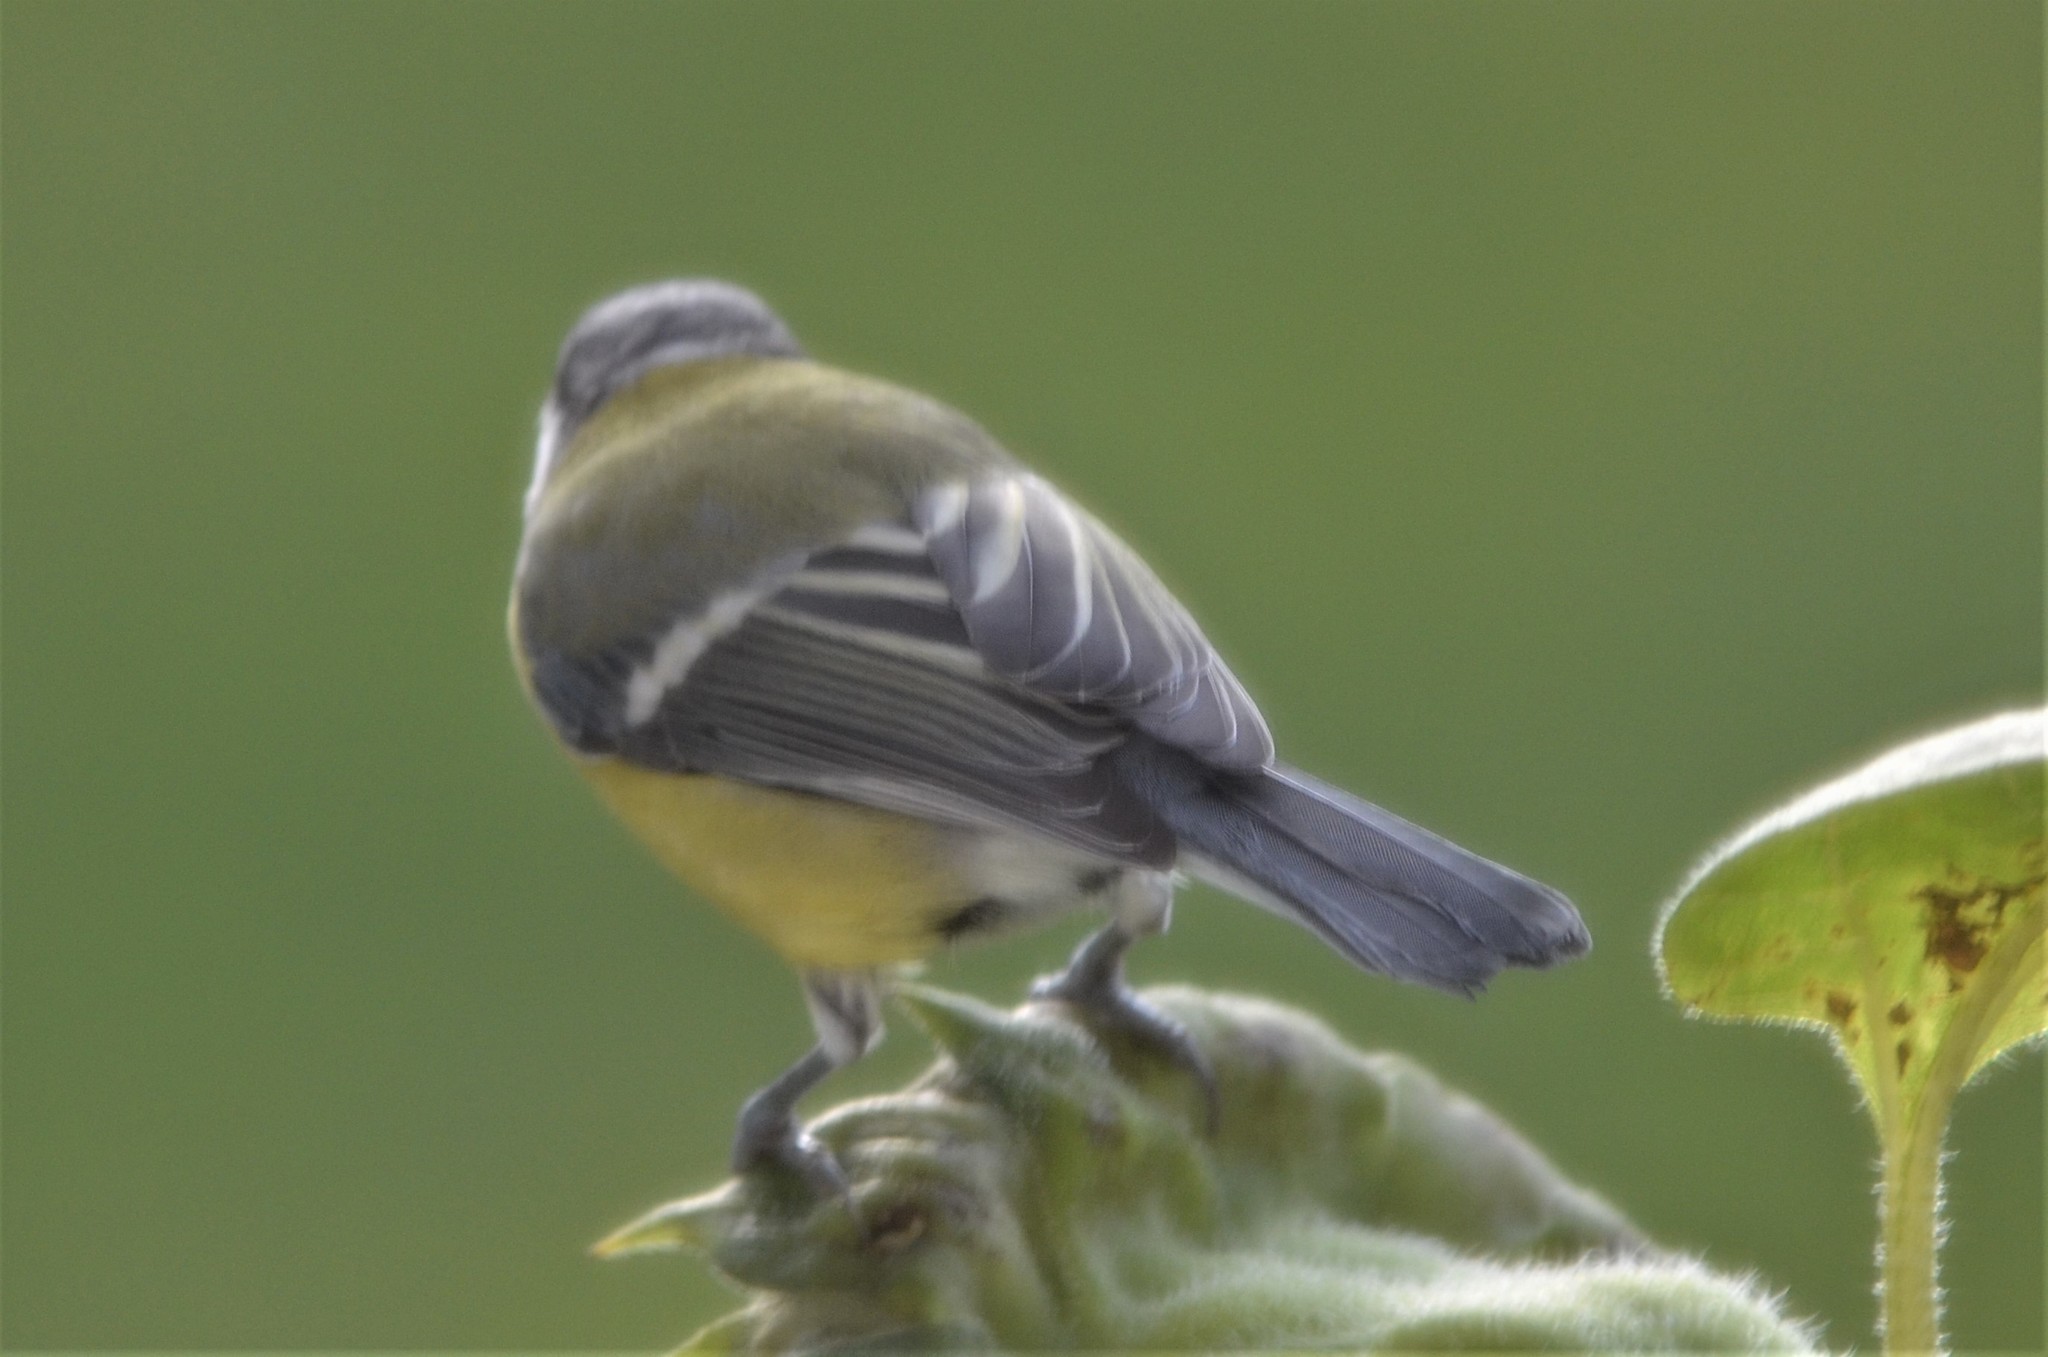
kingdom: Animalia
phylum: Chordata
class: Aves
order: Passeriformes
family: Paridae
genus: Parus
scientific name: Parus major
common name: Great tit
